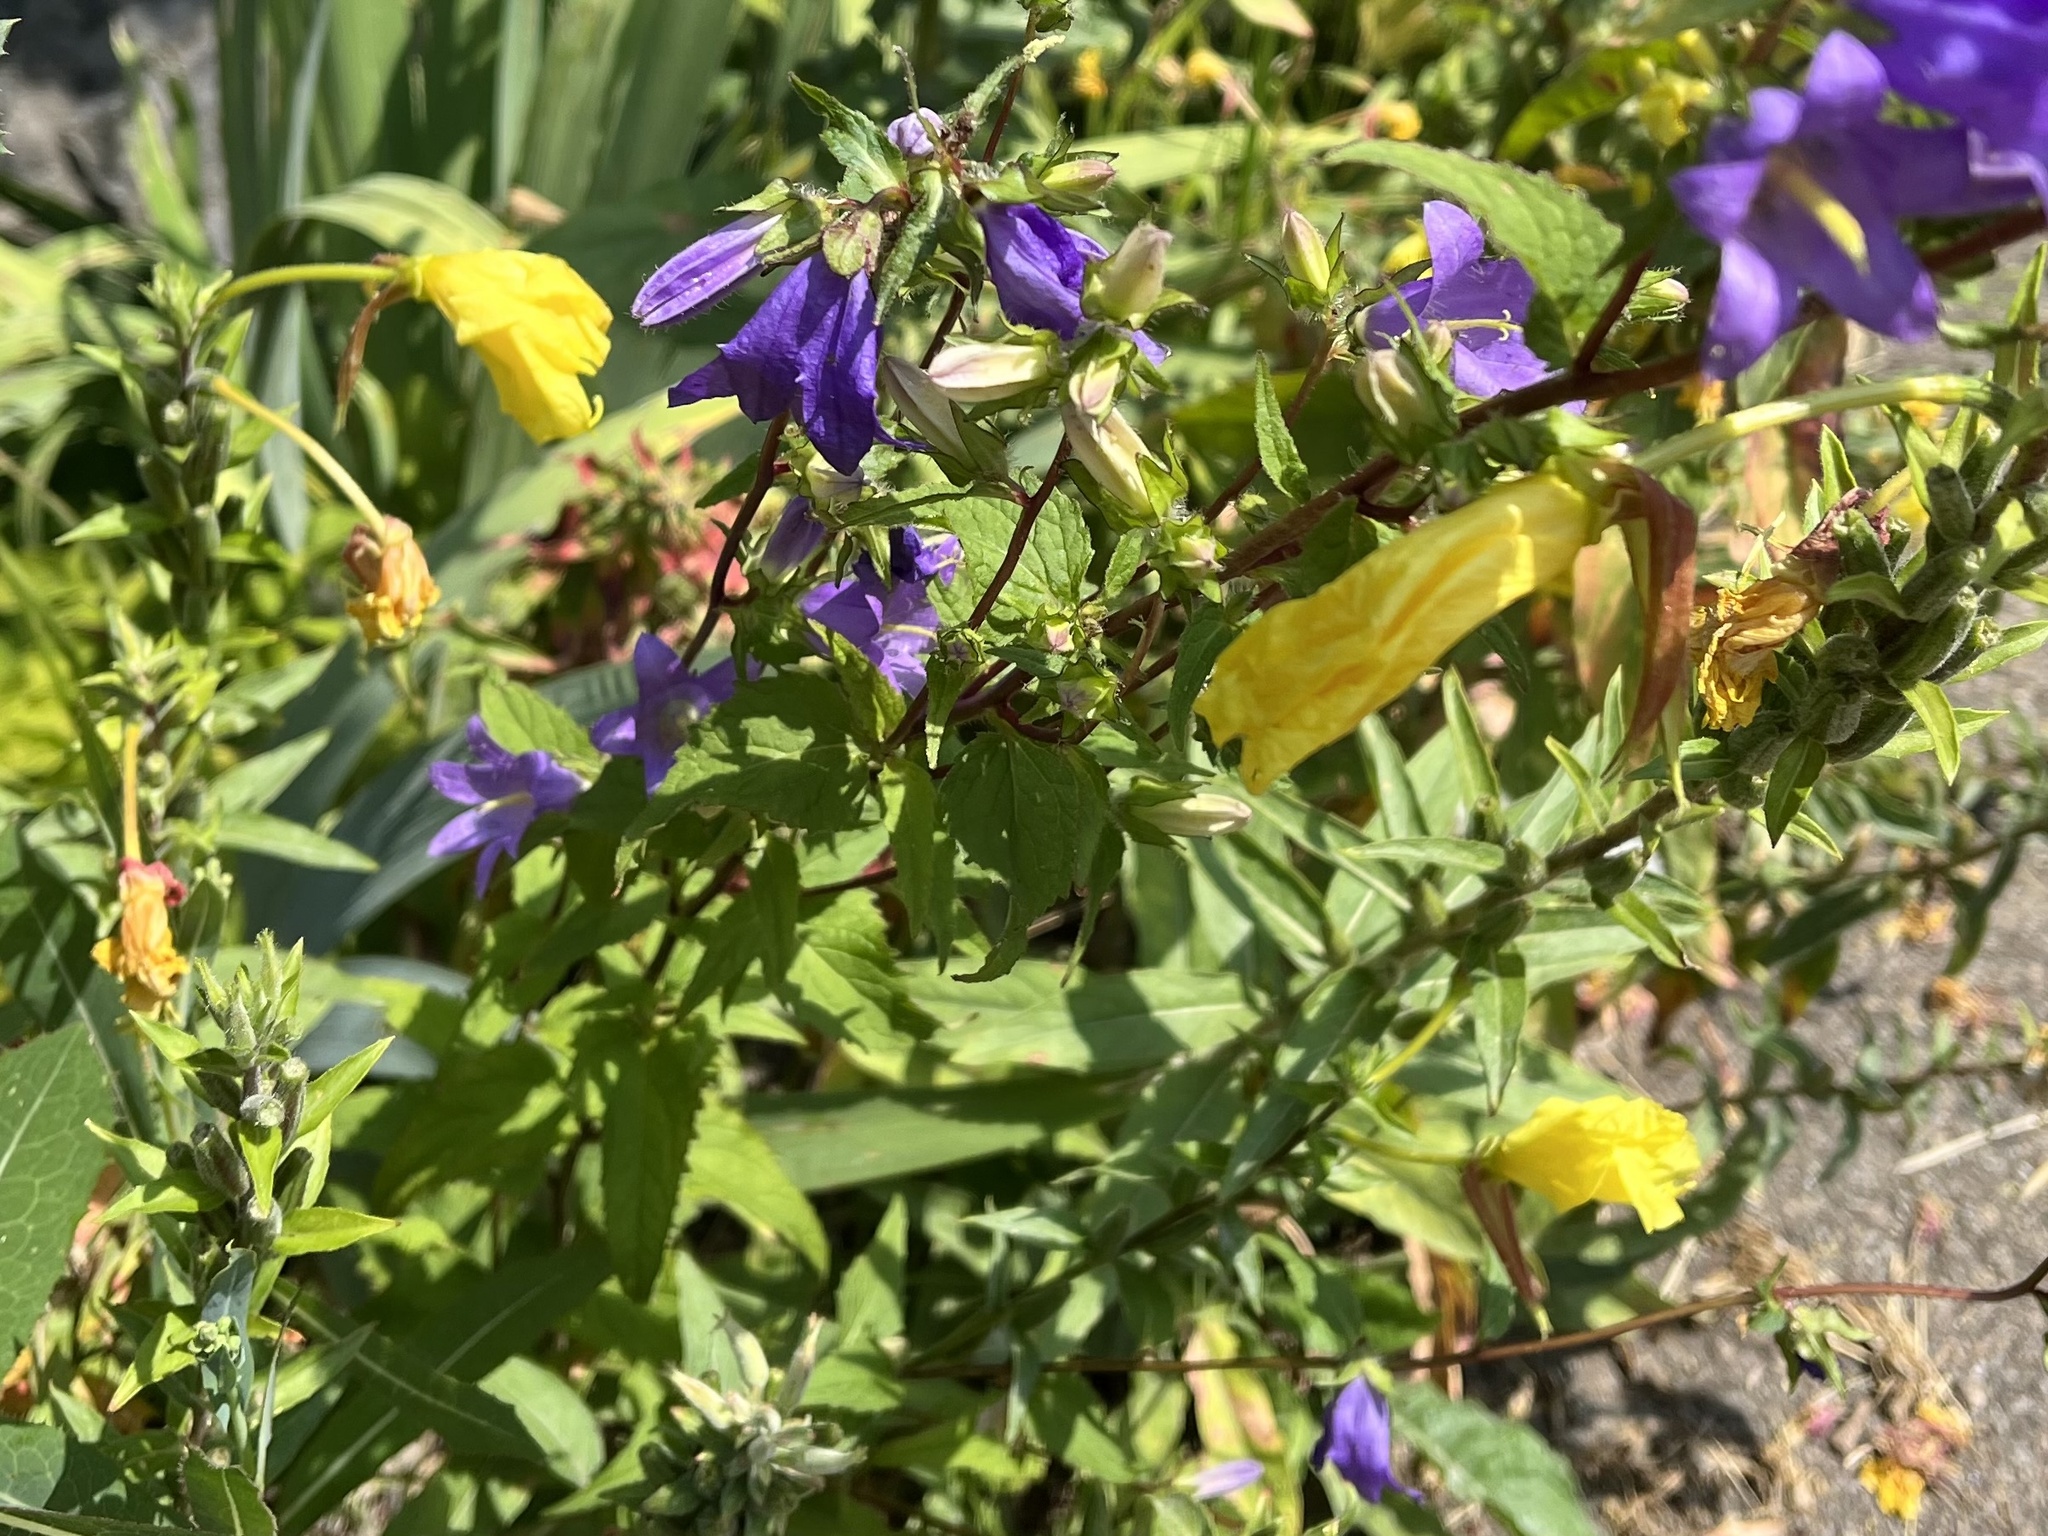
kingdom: Plantae
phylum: Tracheophyta
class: Magnoliopsida
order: Asterales
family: Campanulaceae
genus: Campanula
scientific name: Campanula trachelium
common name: Nettle-leaved bellflower
